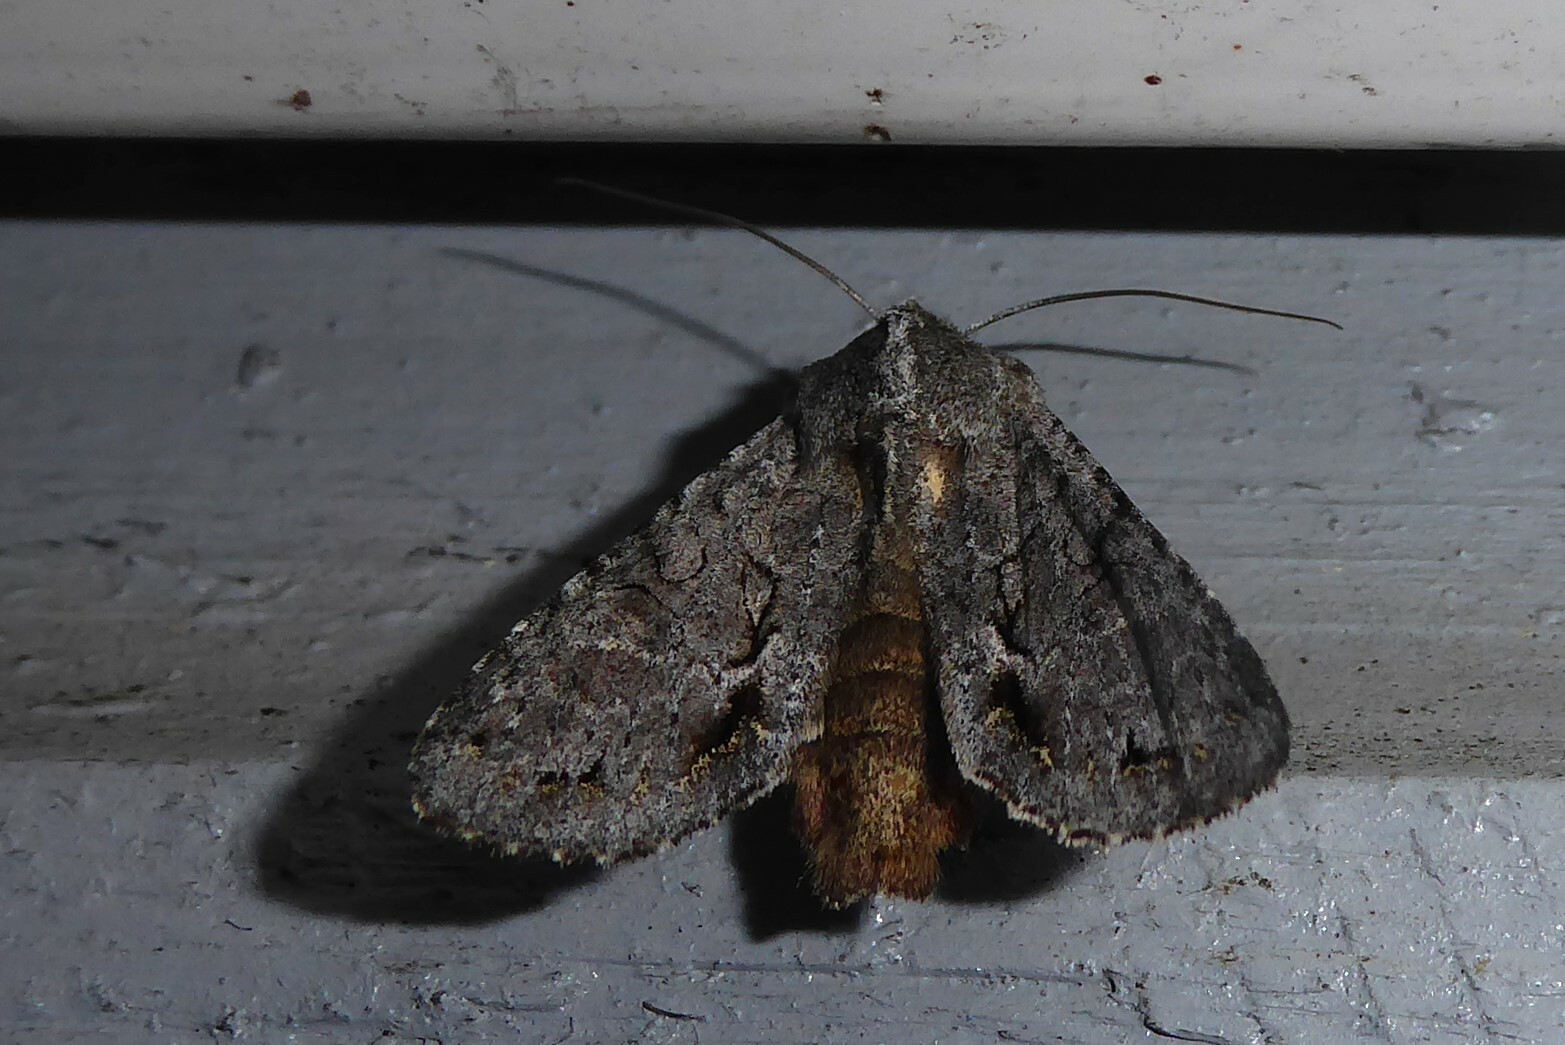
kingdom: Animalia
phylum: Arthropoda
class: Insecta
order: Lepidoptera
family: Noctuidae
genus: Ichneutica
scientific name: Ichneutica
